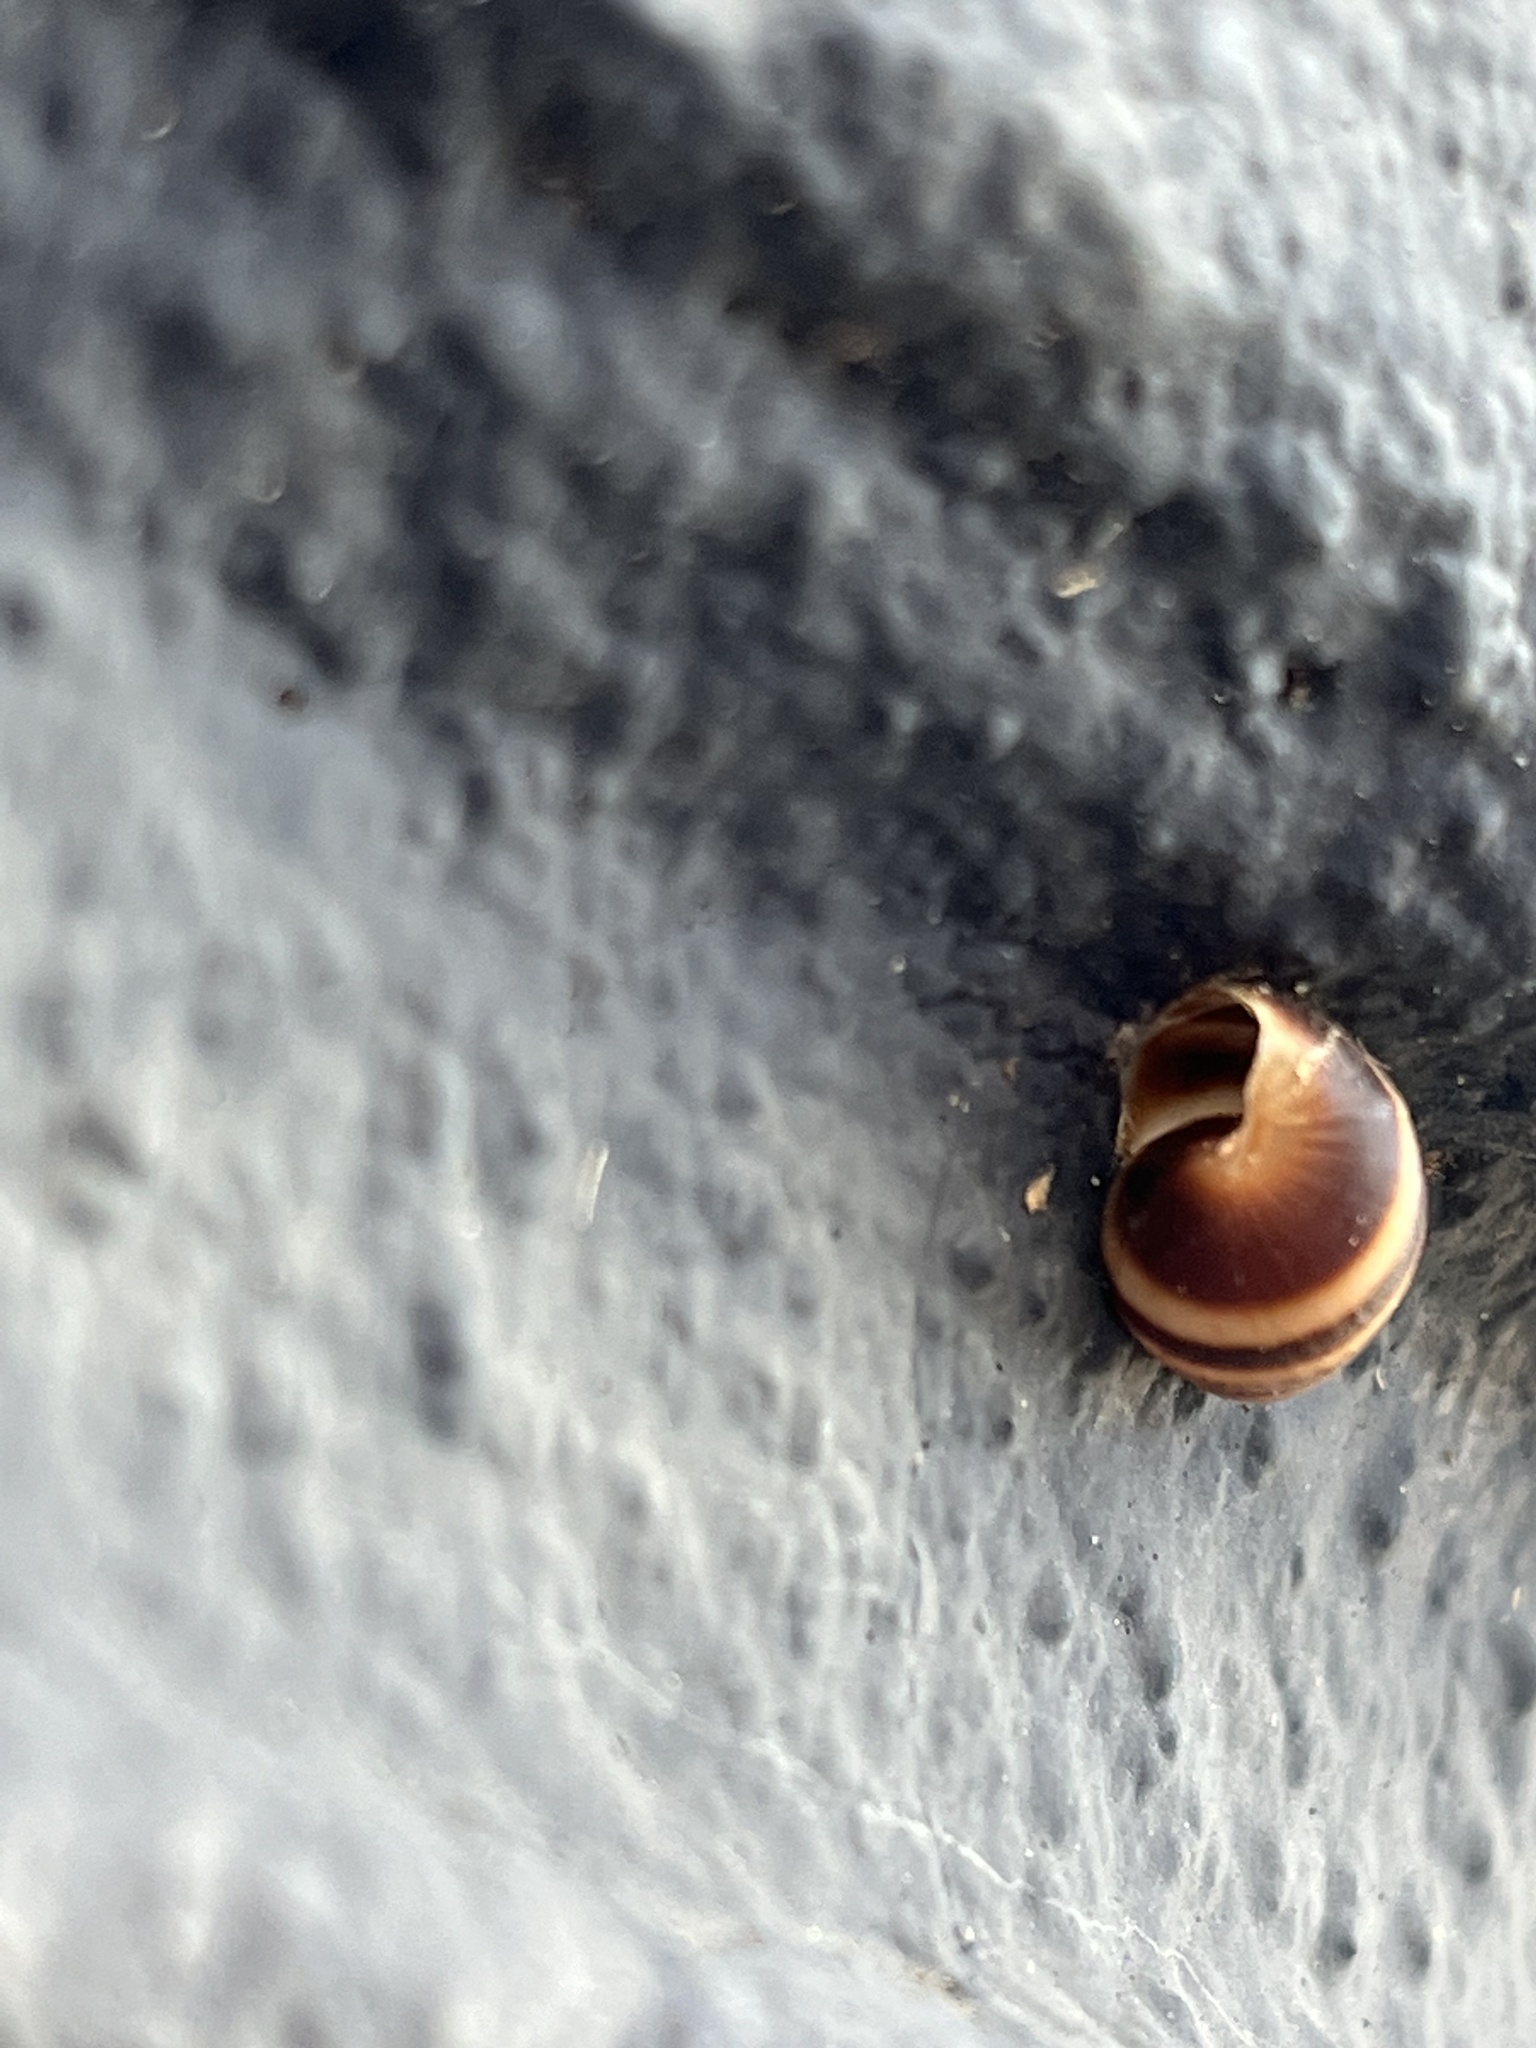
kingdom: Animalia
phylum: Mollusca
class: Gastropoda
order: Stylommatophora
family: Bulimulidae
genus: Bulimulus
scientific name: Bulimulus guadalupensis
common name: West indian bulimulus
